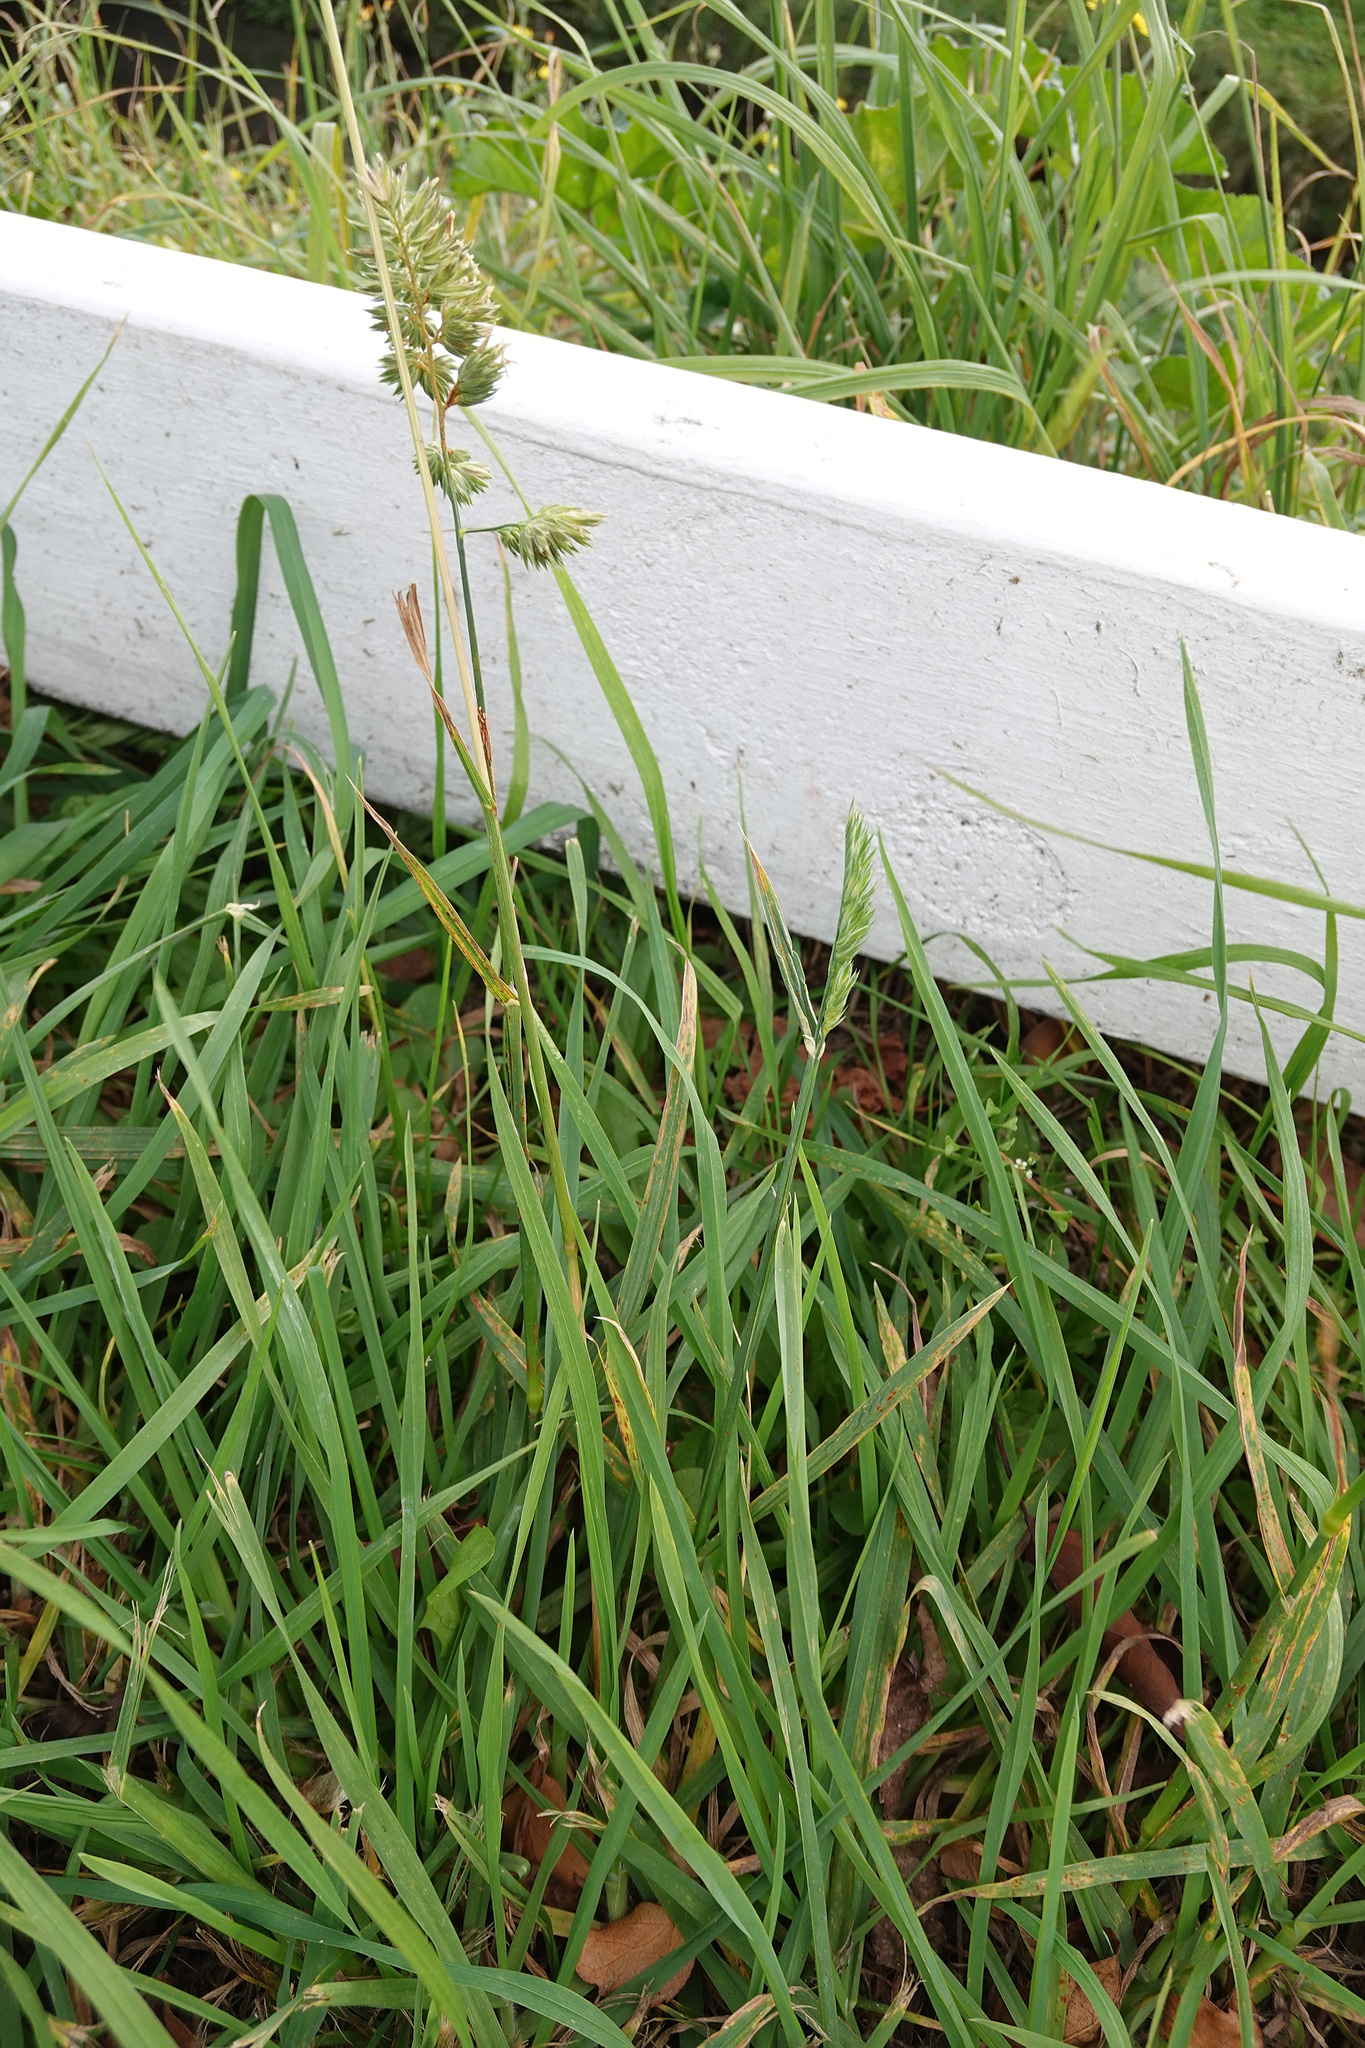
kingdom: Plantae
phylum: Tracheophyta
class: Liliopsida
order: Poales
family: Poaceae
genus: Dactylis
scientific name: Dactylis glomerata
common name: Orchardgrass
